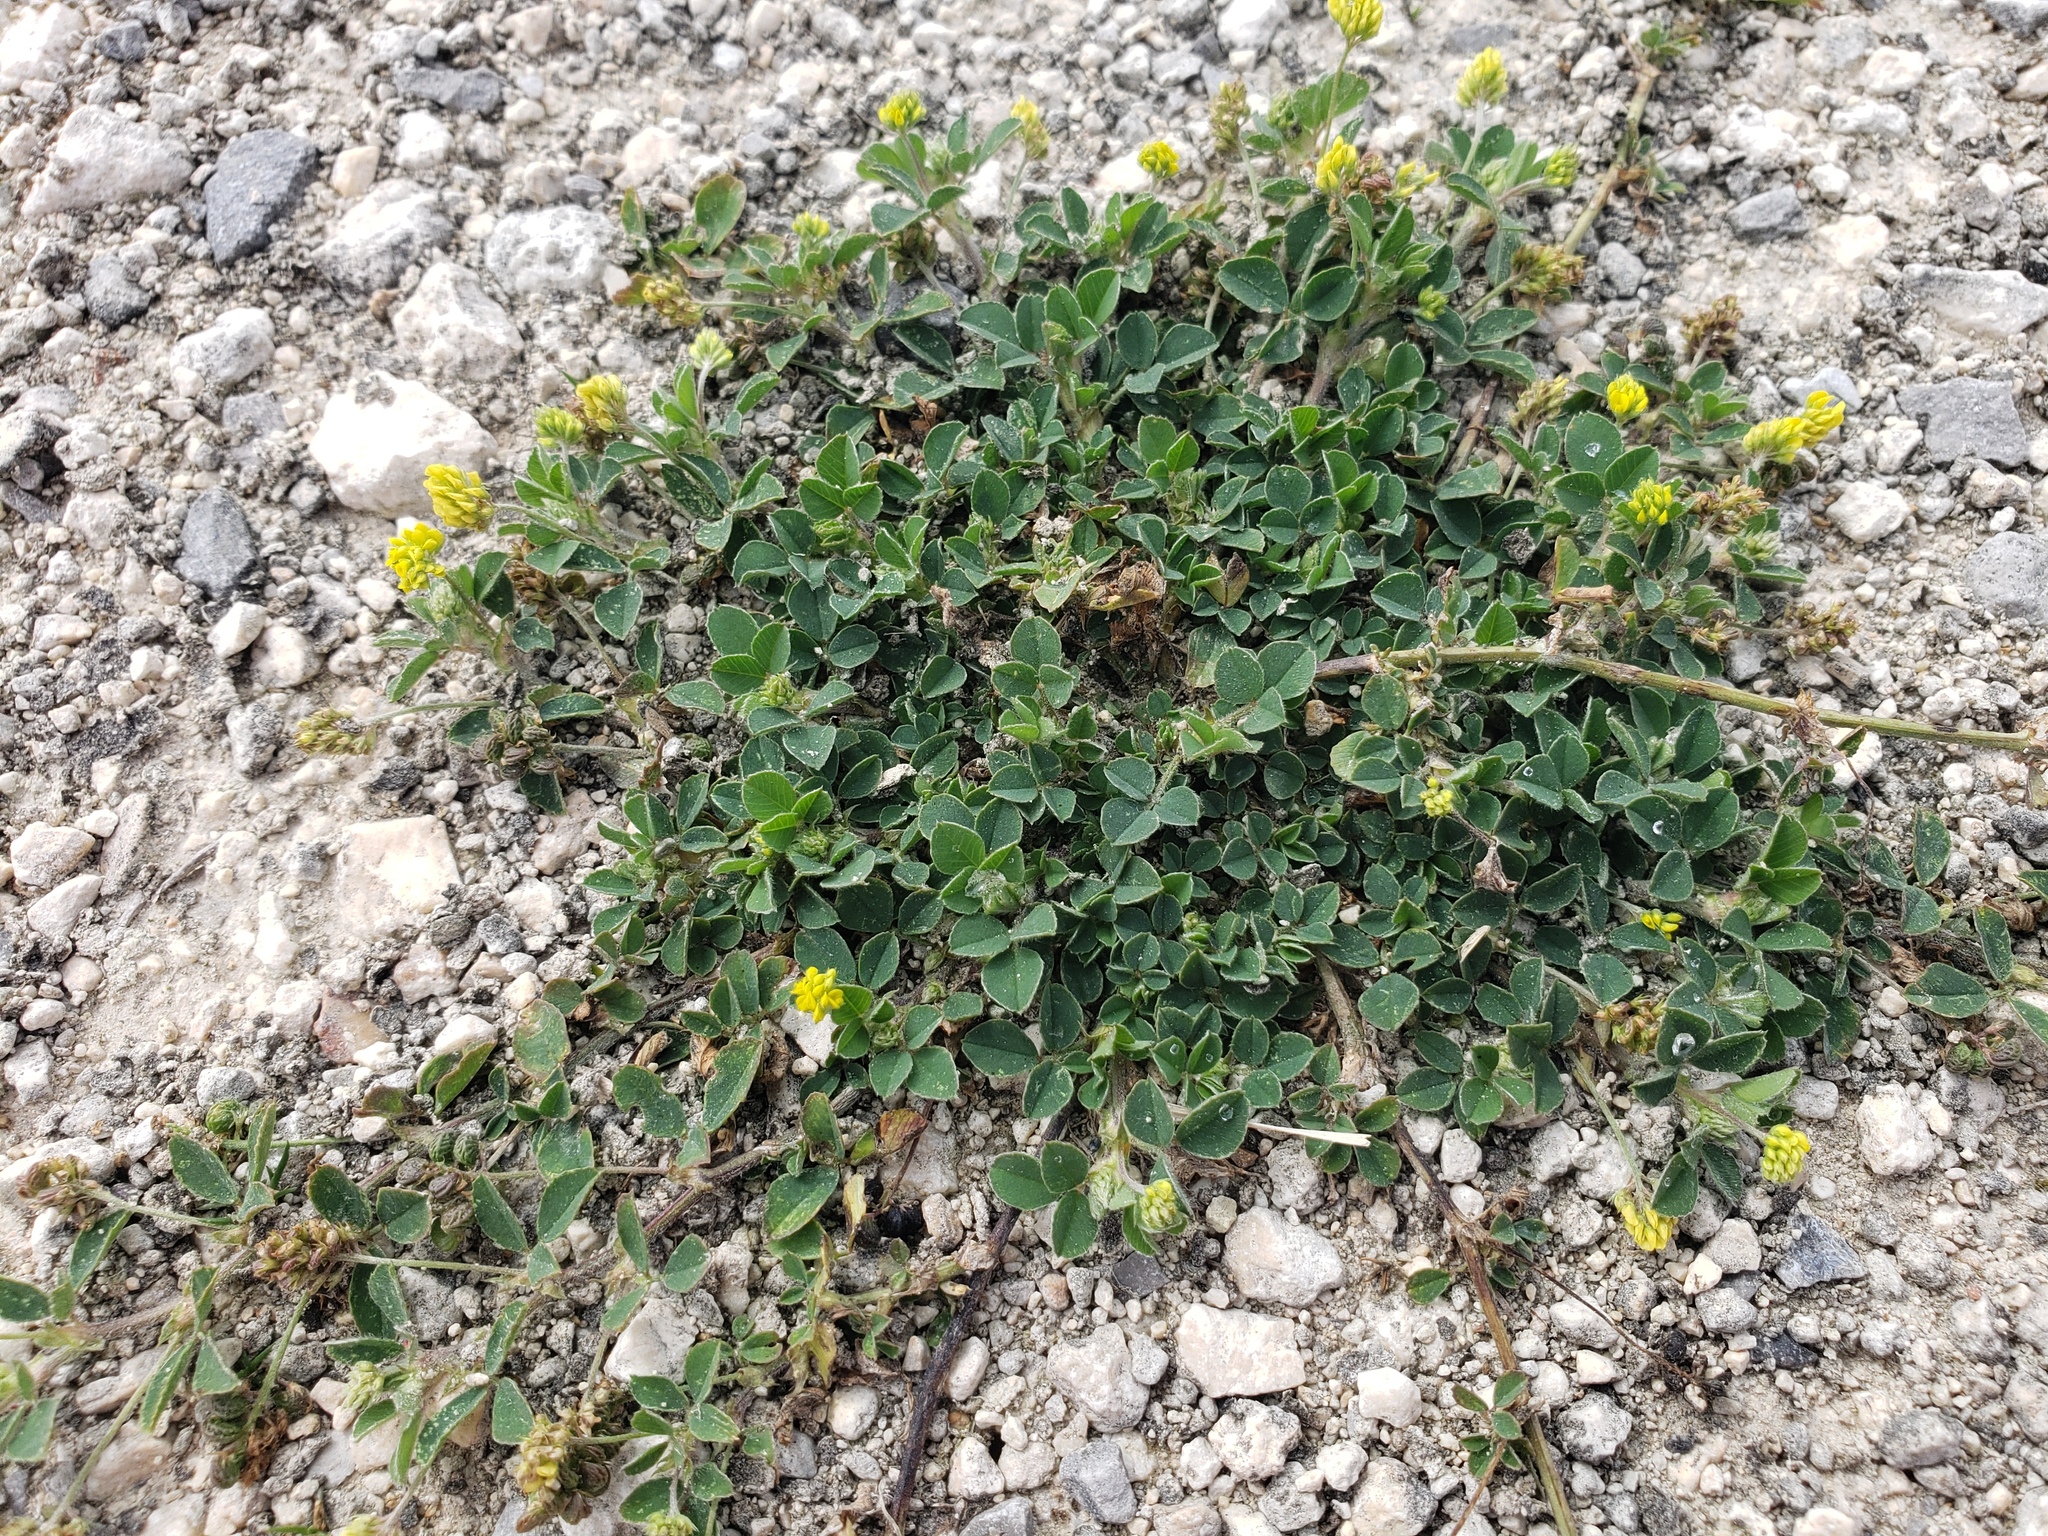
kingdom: Plantae
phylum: Tracheophyta
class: Magnoliopsida
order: Fabales
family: Fabaceae
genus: Medicago
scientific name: Medicago lupulina
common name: Black medick
